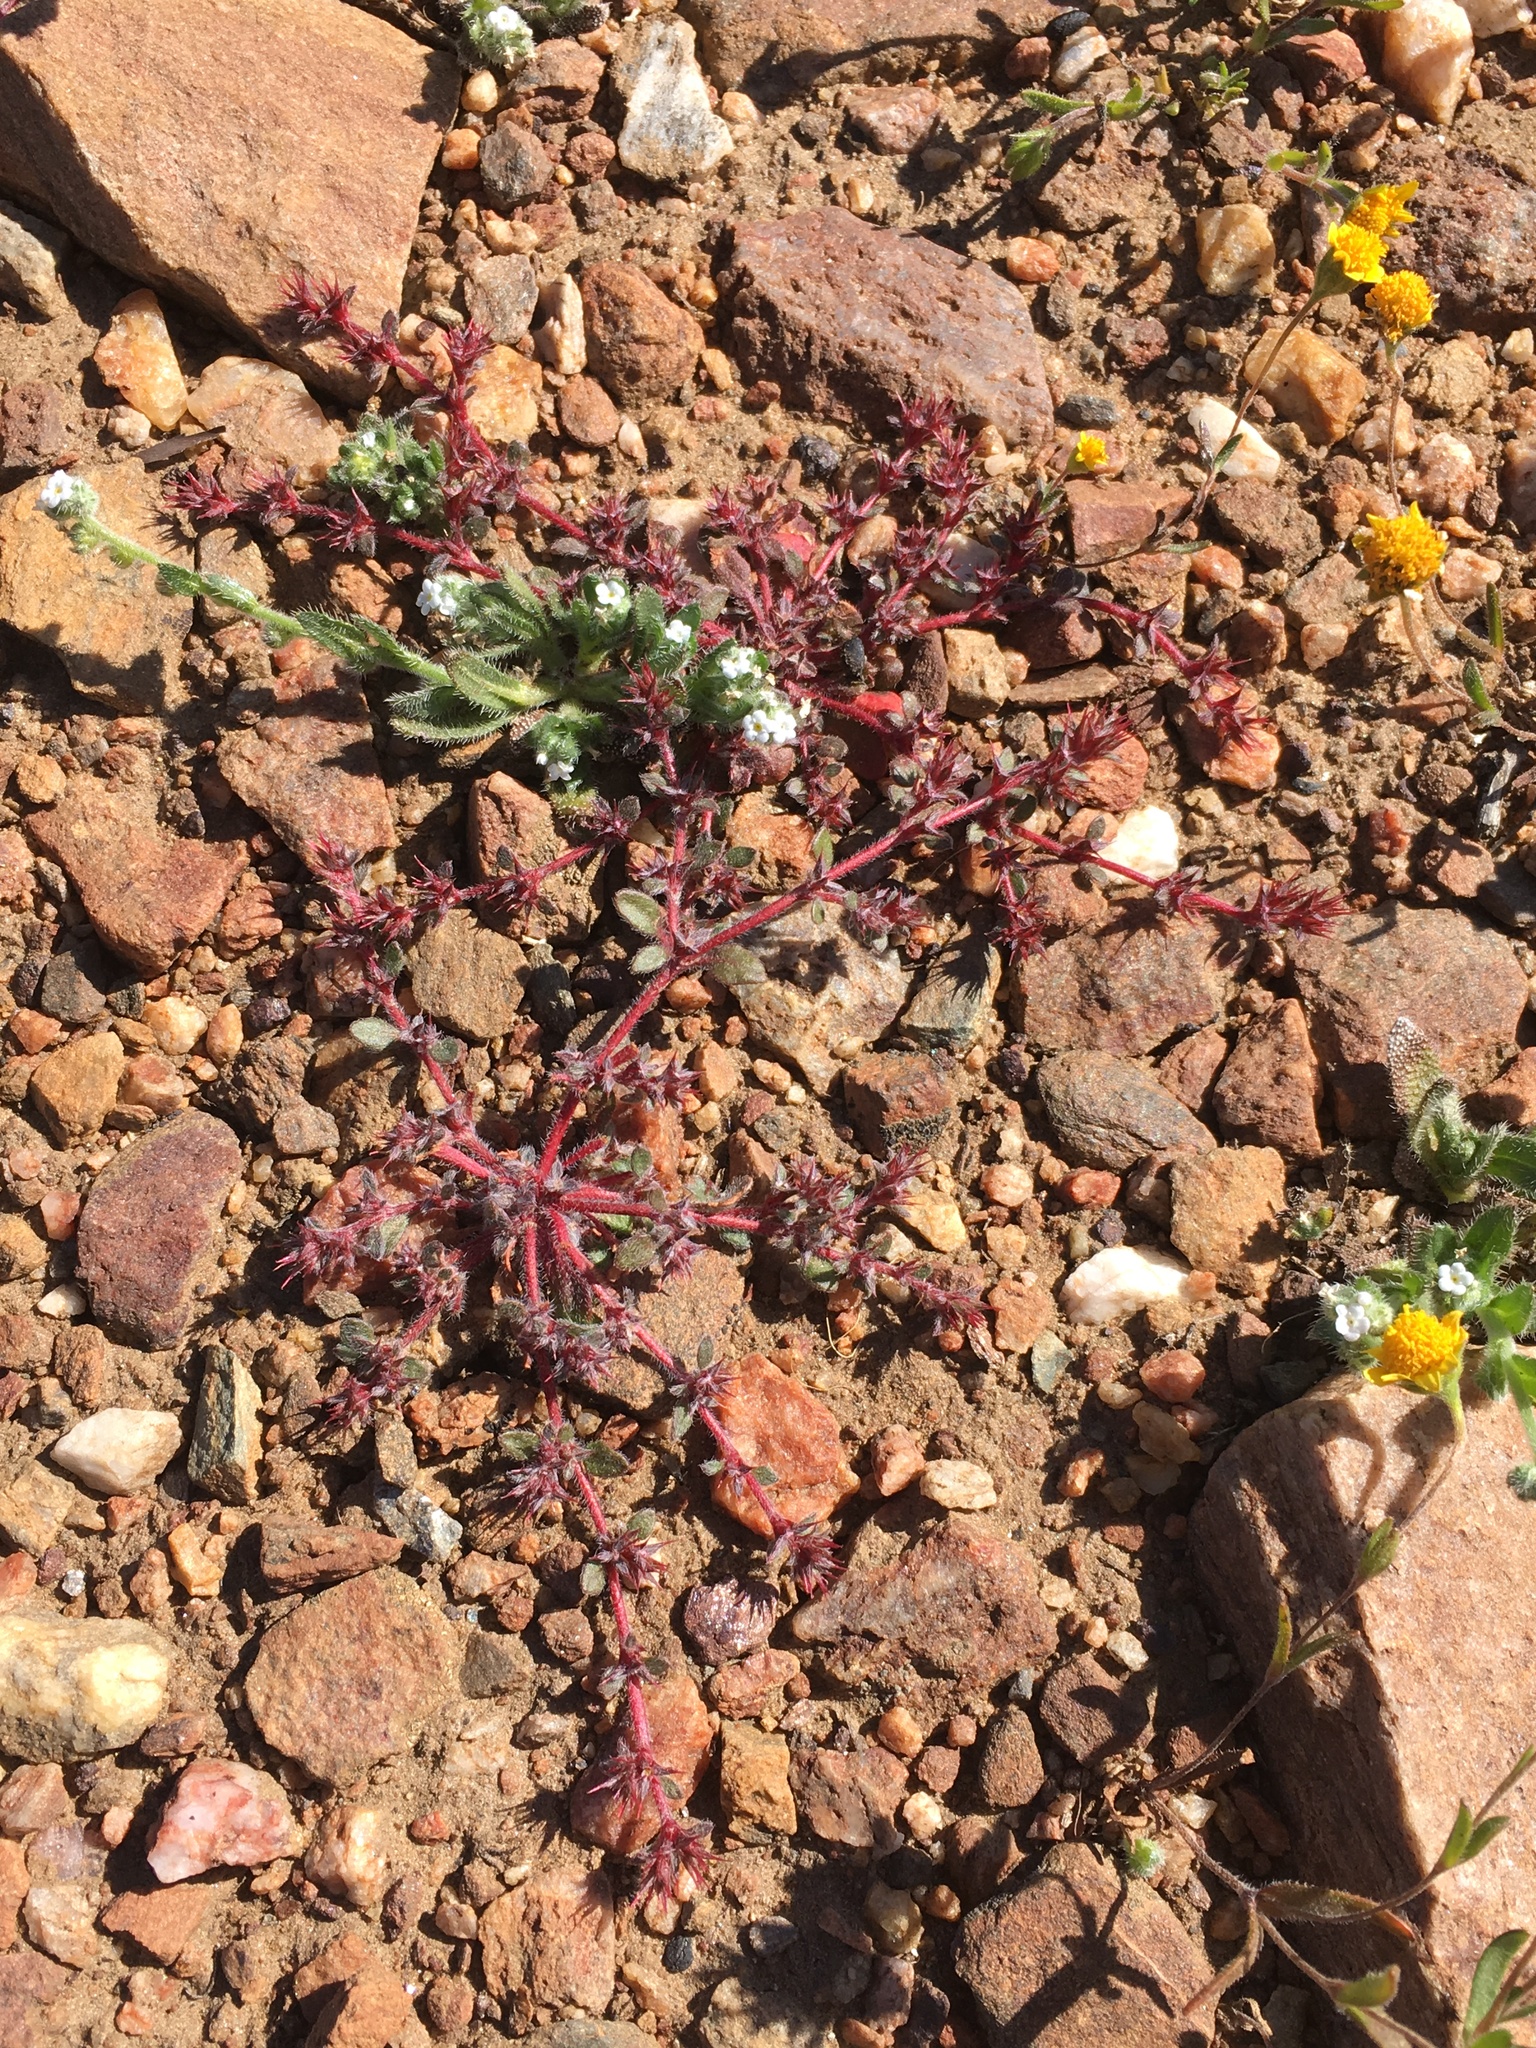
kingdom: Plantae
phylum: Tracheophyta
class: Magnoliopsida
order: Caryophyllales
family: Polygonaceae
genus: Chorizanthe
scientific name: Chorizanthe polygonoides
